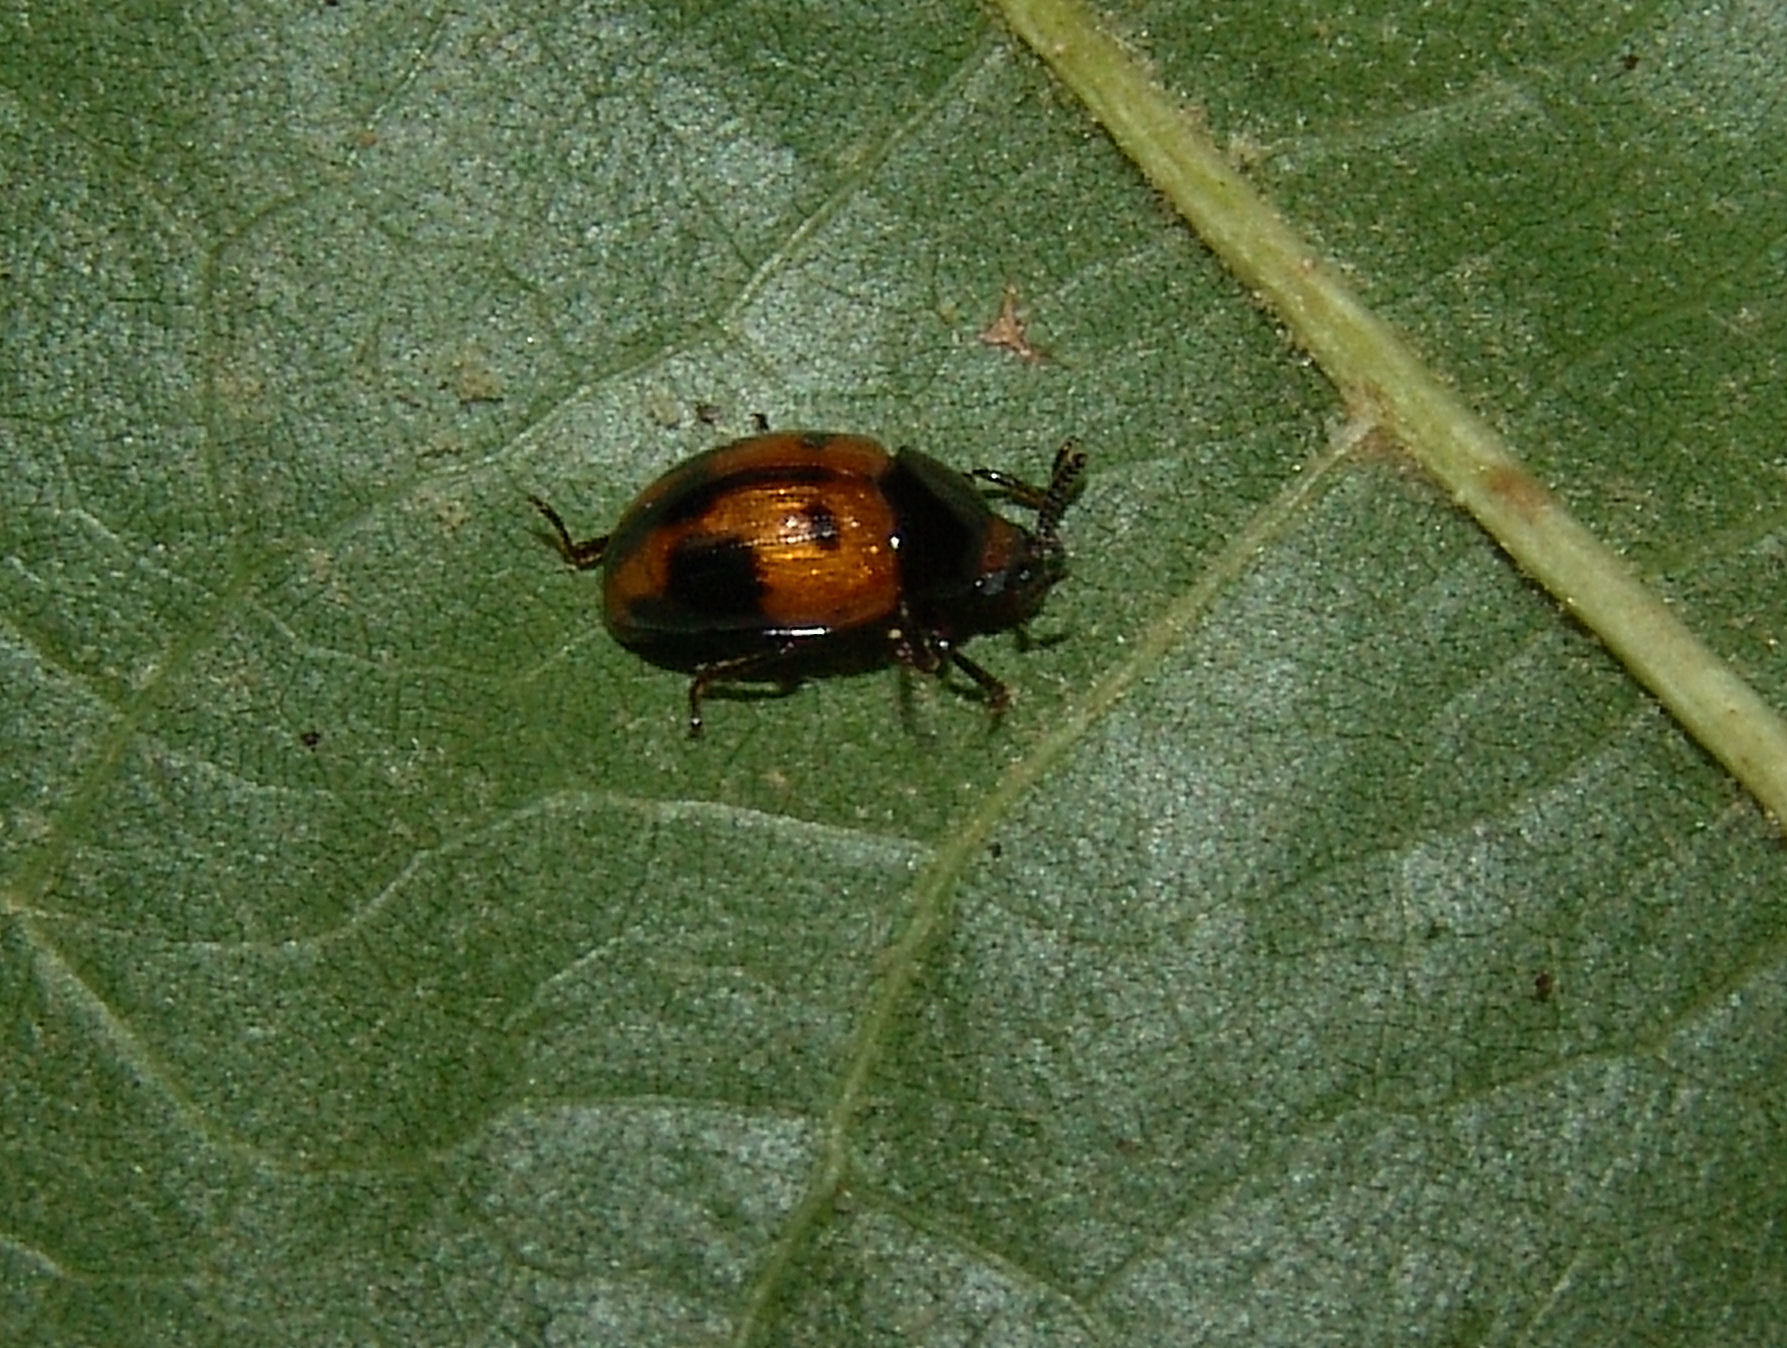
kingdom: Animalia
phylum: Arthropoda
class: Insecta
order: Coleoptera
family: Tenebrionidae
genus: Diaperis
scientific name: Diaperis maculata
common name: Darkling beetle
